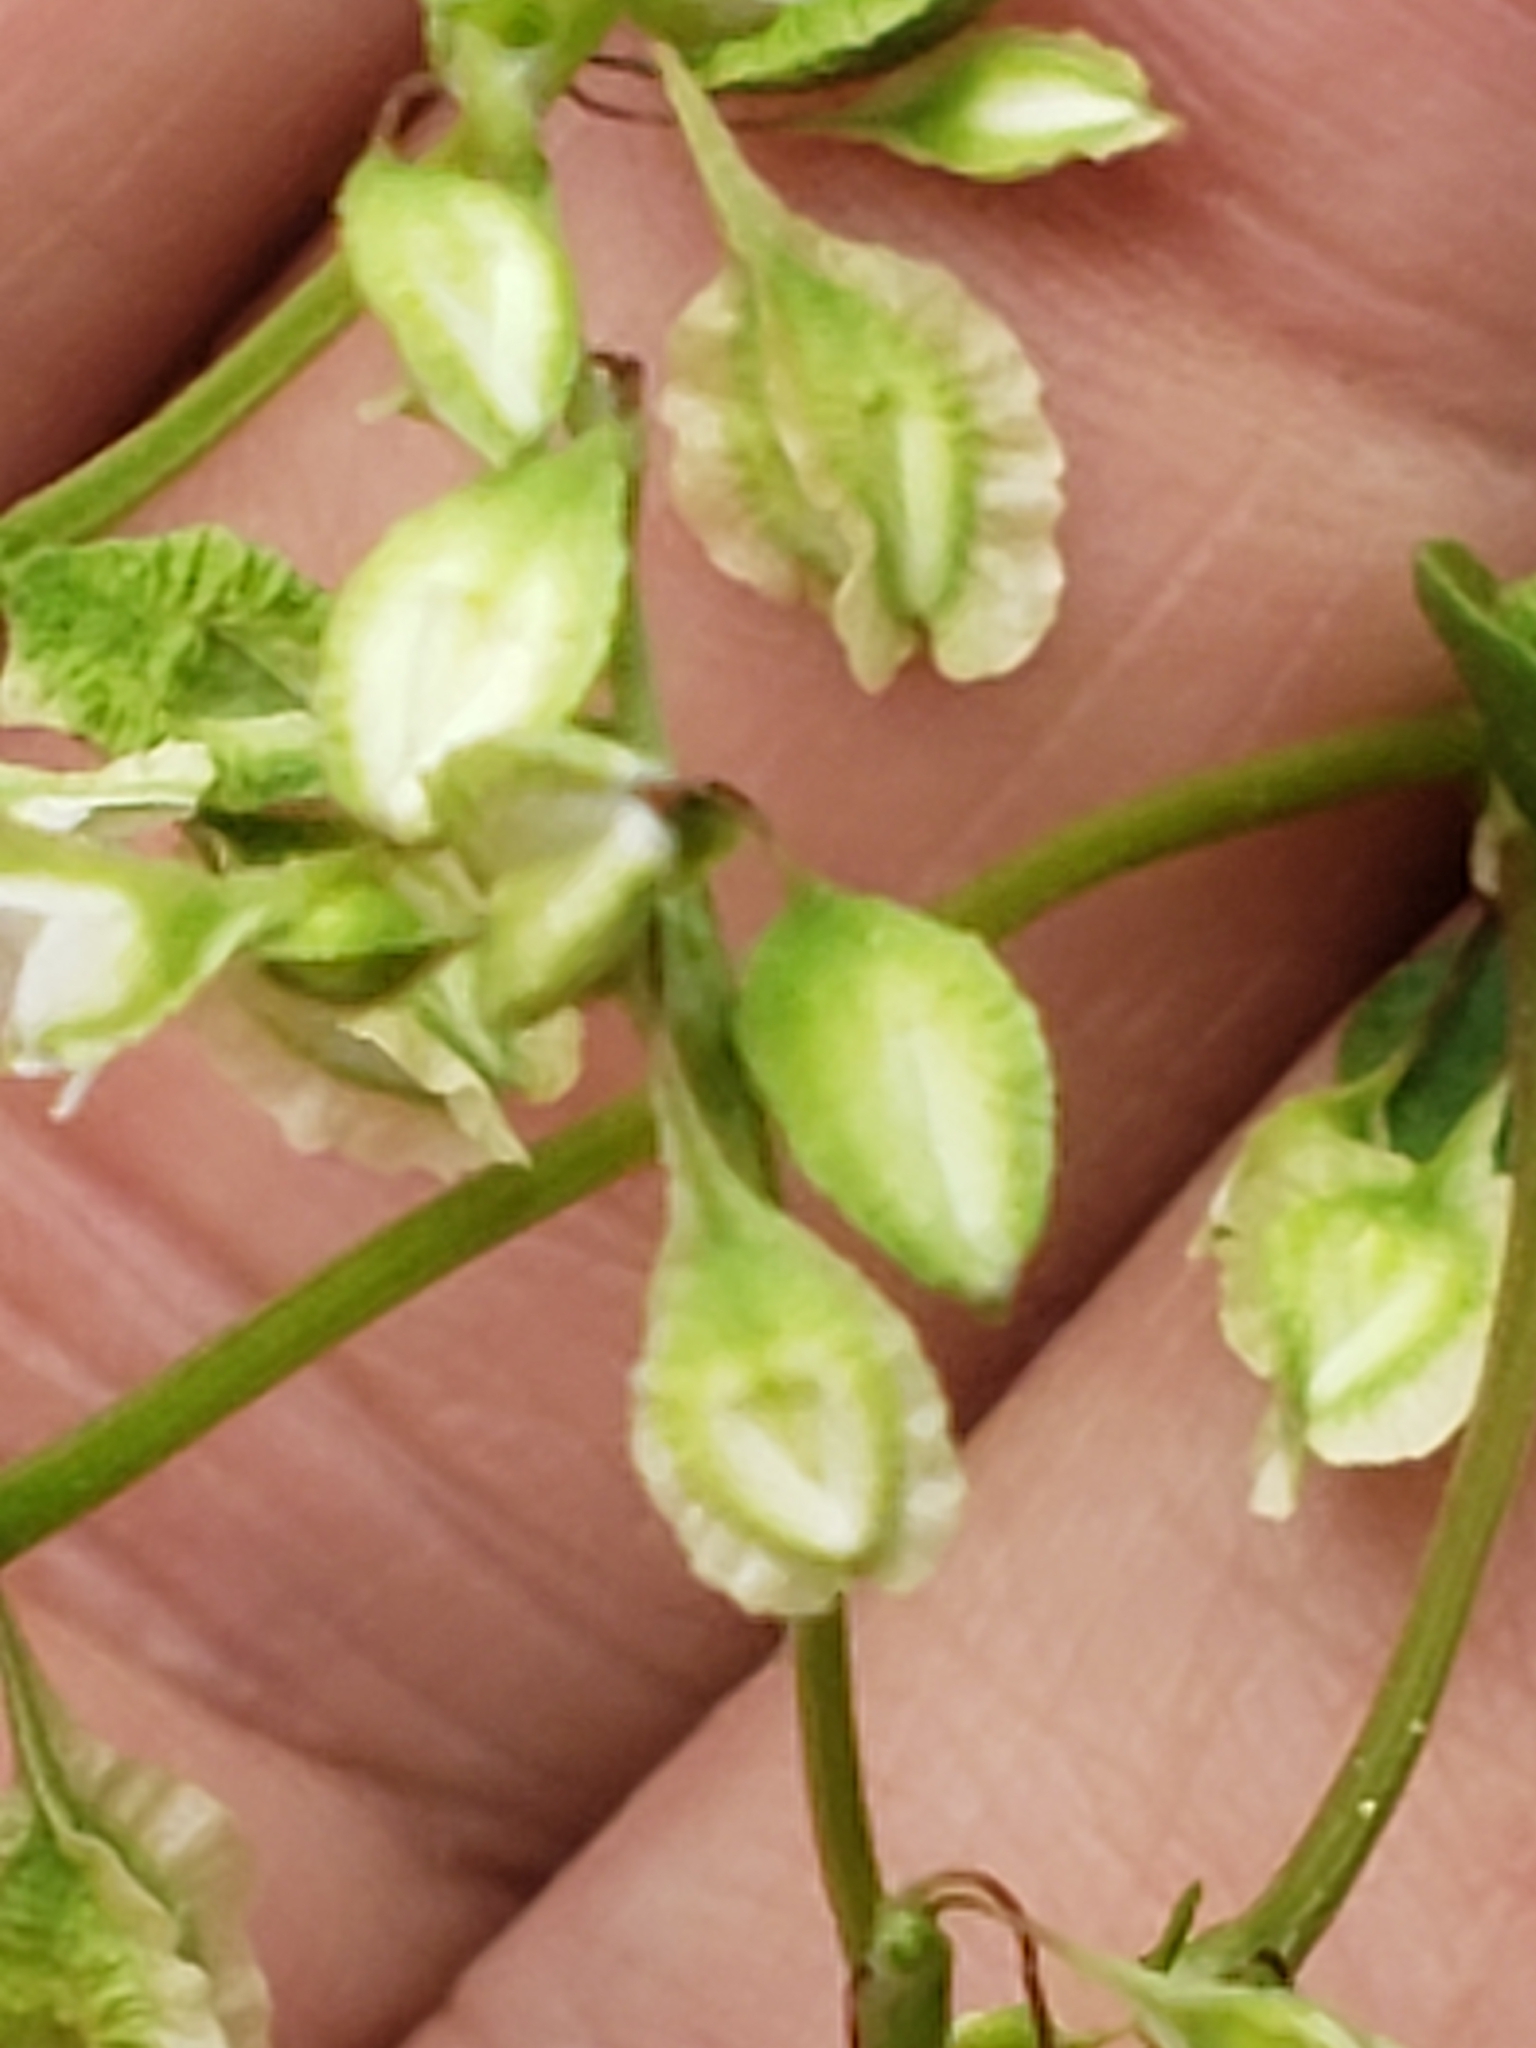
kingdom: Plantae
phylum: Tracheophyta
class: Magnoliopsida
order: Caryophyllales
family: Polygonaceae
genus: Fallopia
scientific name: Fallopia scandens
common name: Climbing false buckwheat
